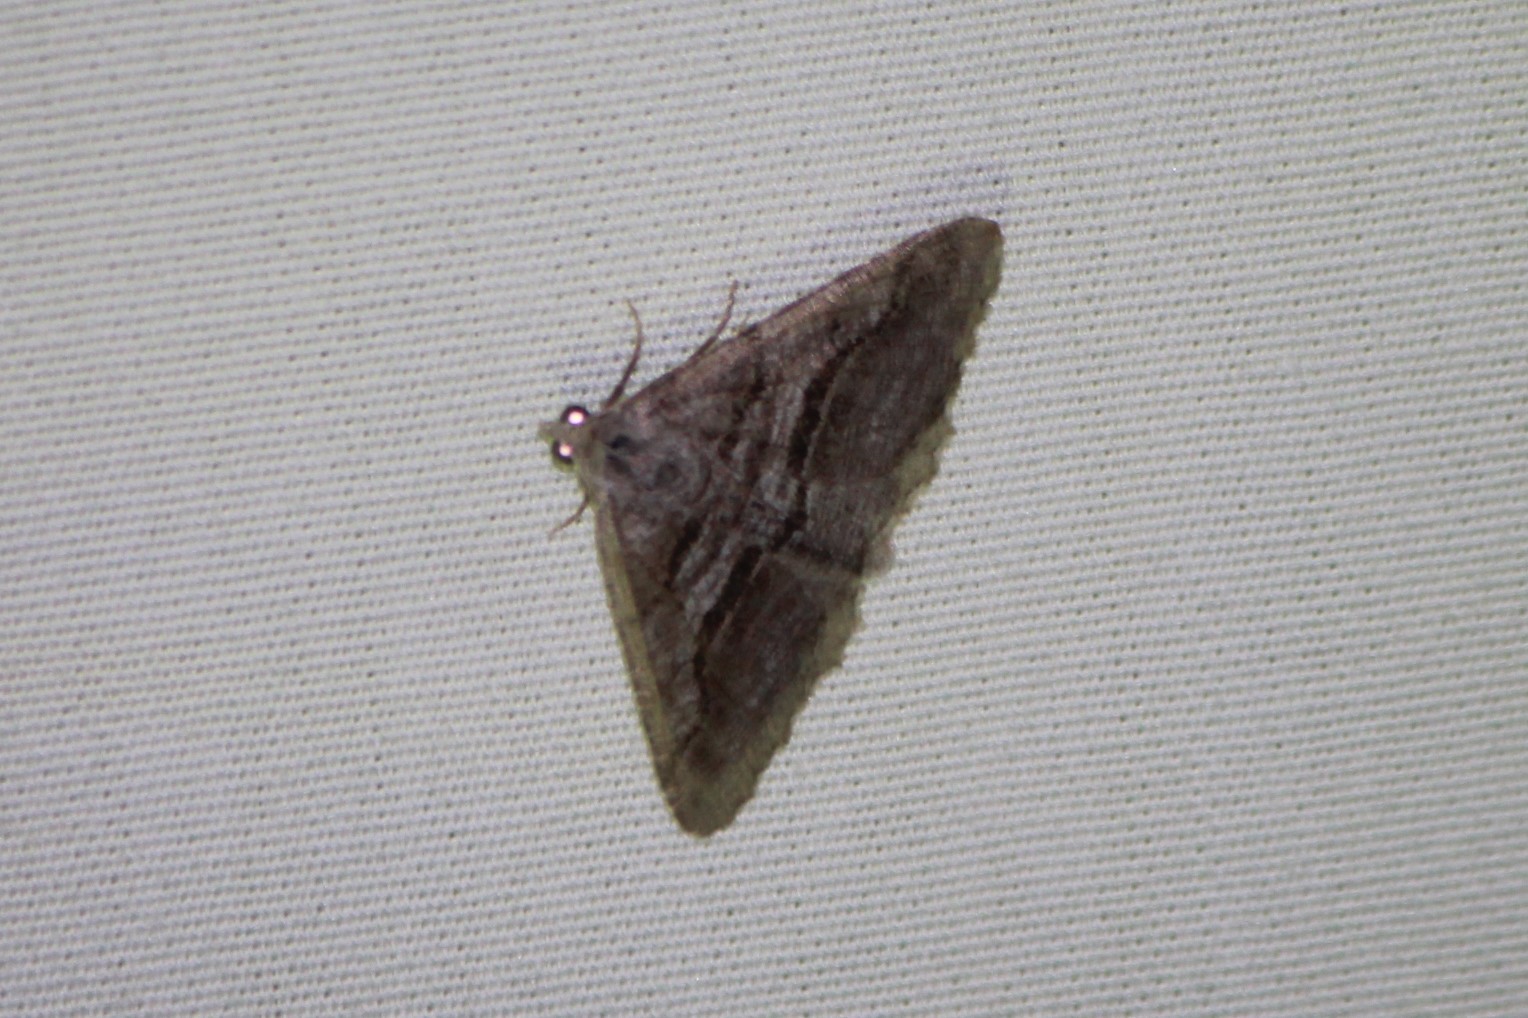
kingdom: Animalia
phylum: Arthropoda
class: Insecta
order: Lepidoptera
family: Geometridae
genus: Digrammia
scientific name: Digrammia continuata
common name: Curve-lined angle
